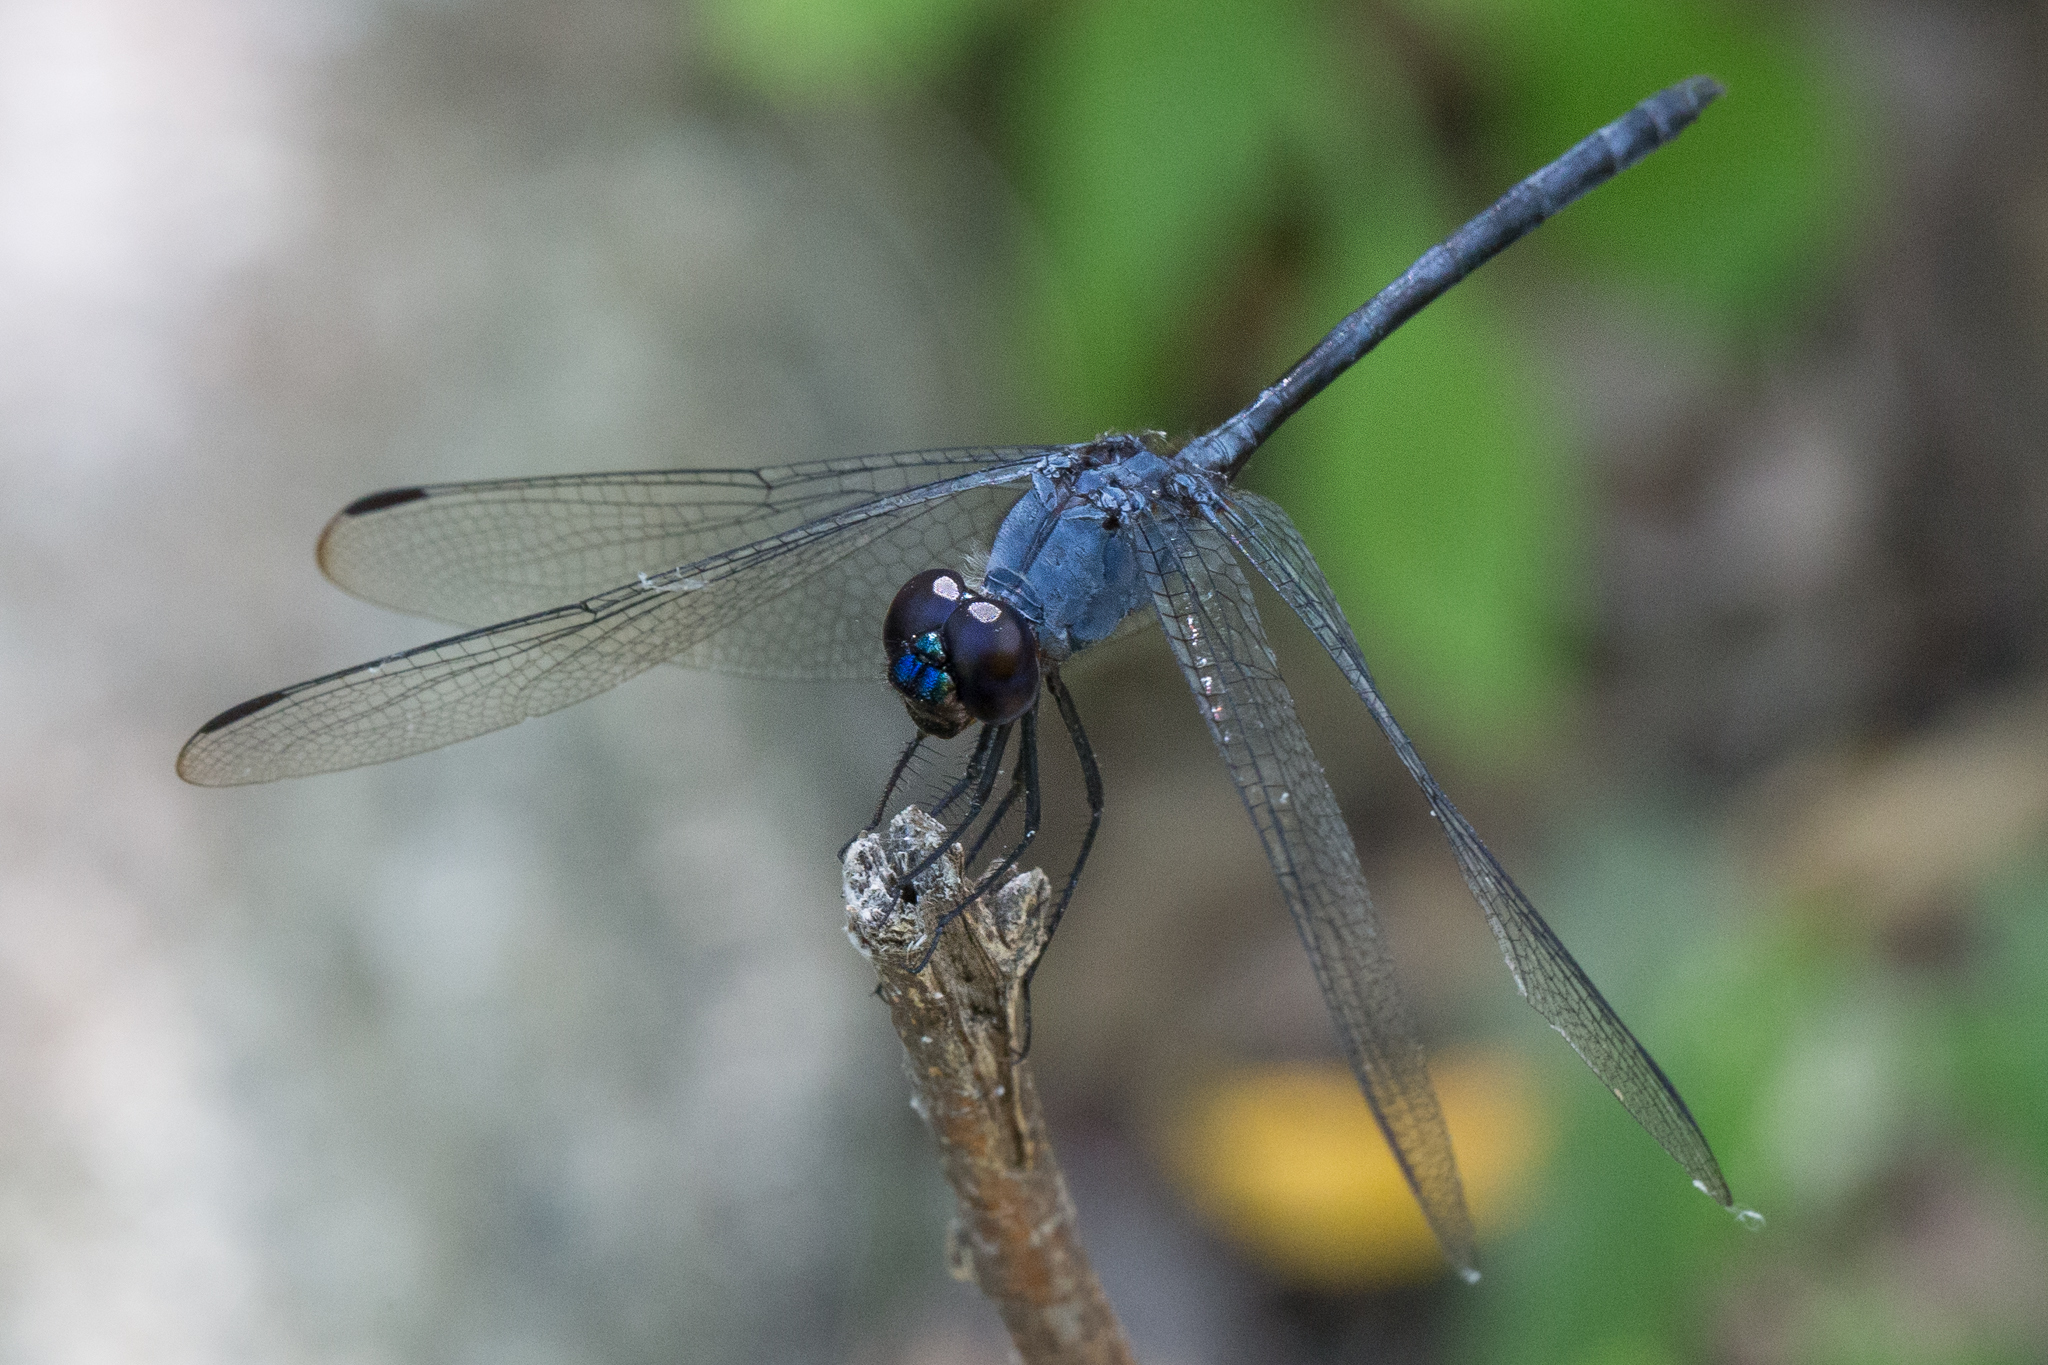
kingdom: Animalia
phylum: Arthropoda
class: Insecta
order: Odonata
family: Libellulidae
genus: Dythemis
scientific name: Dythemis nigrescens
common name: Black setwing
